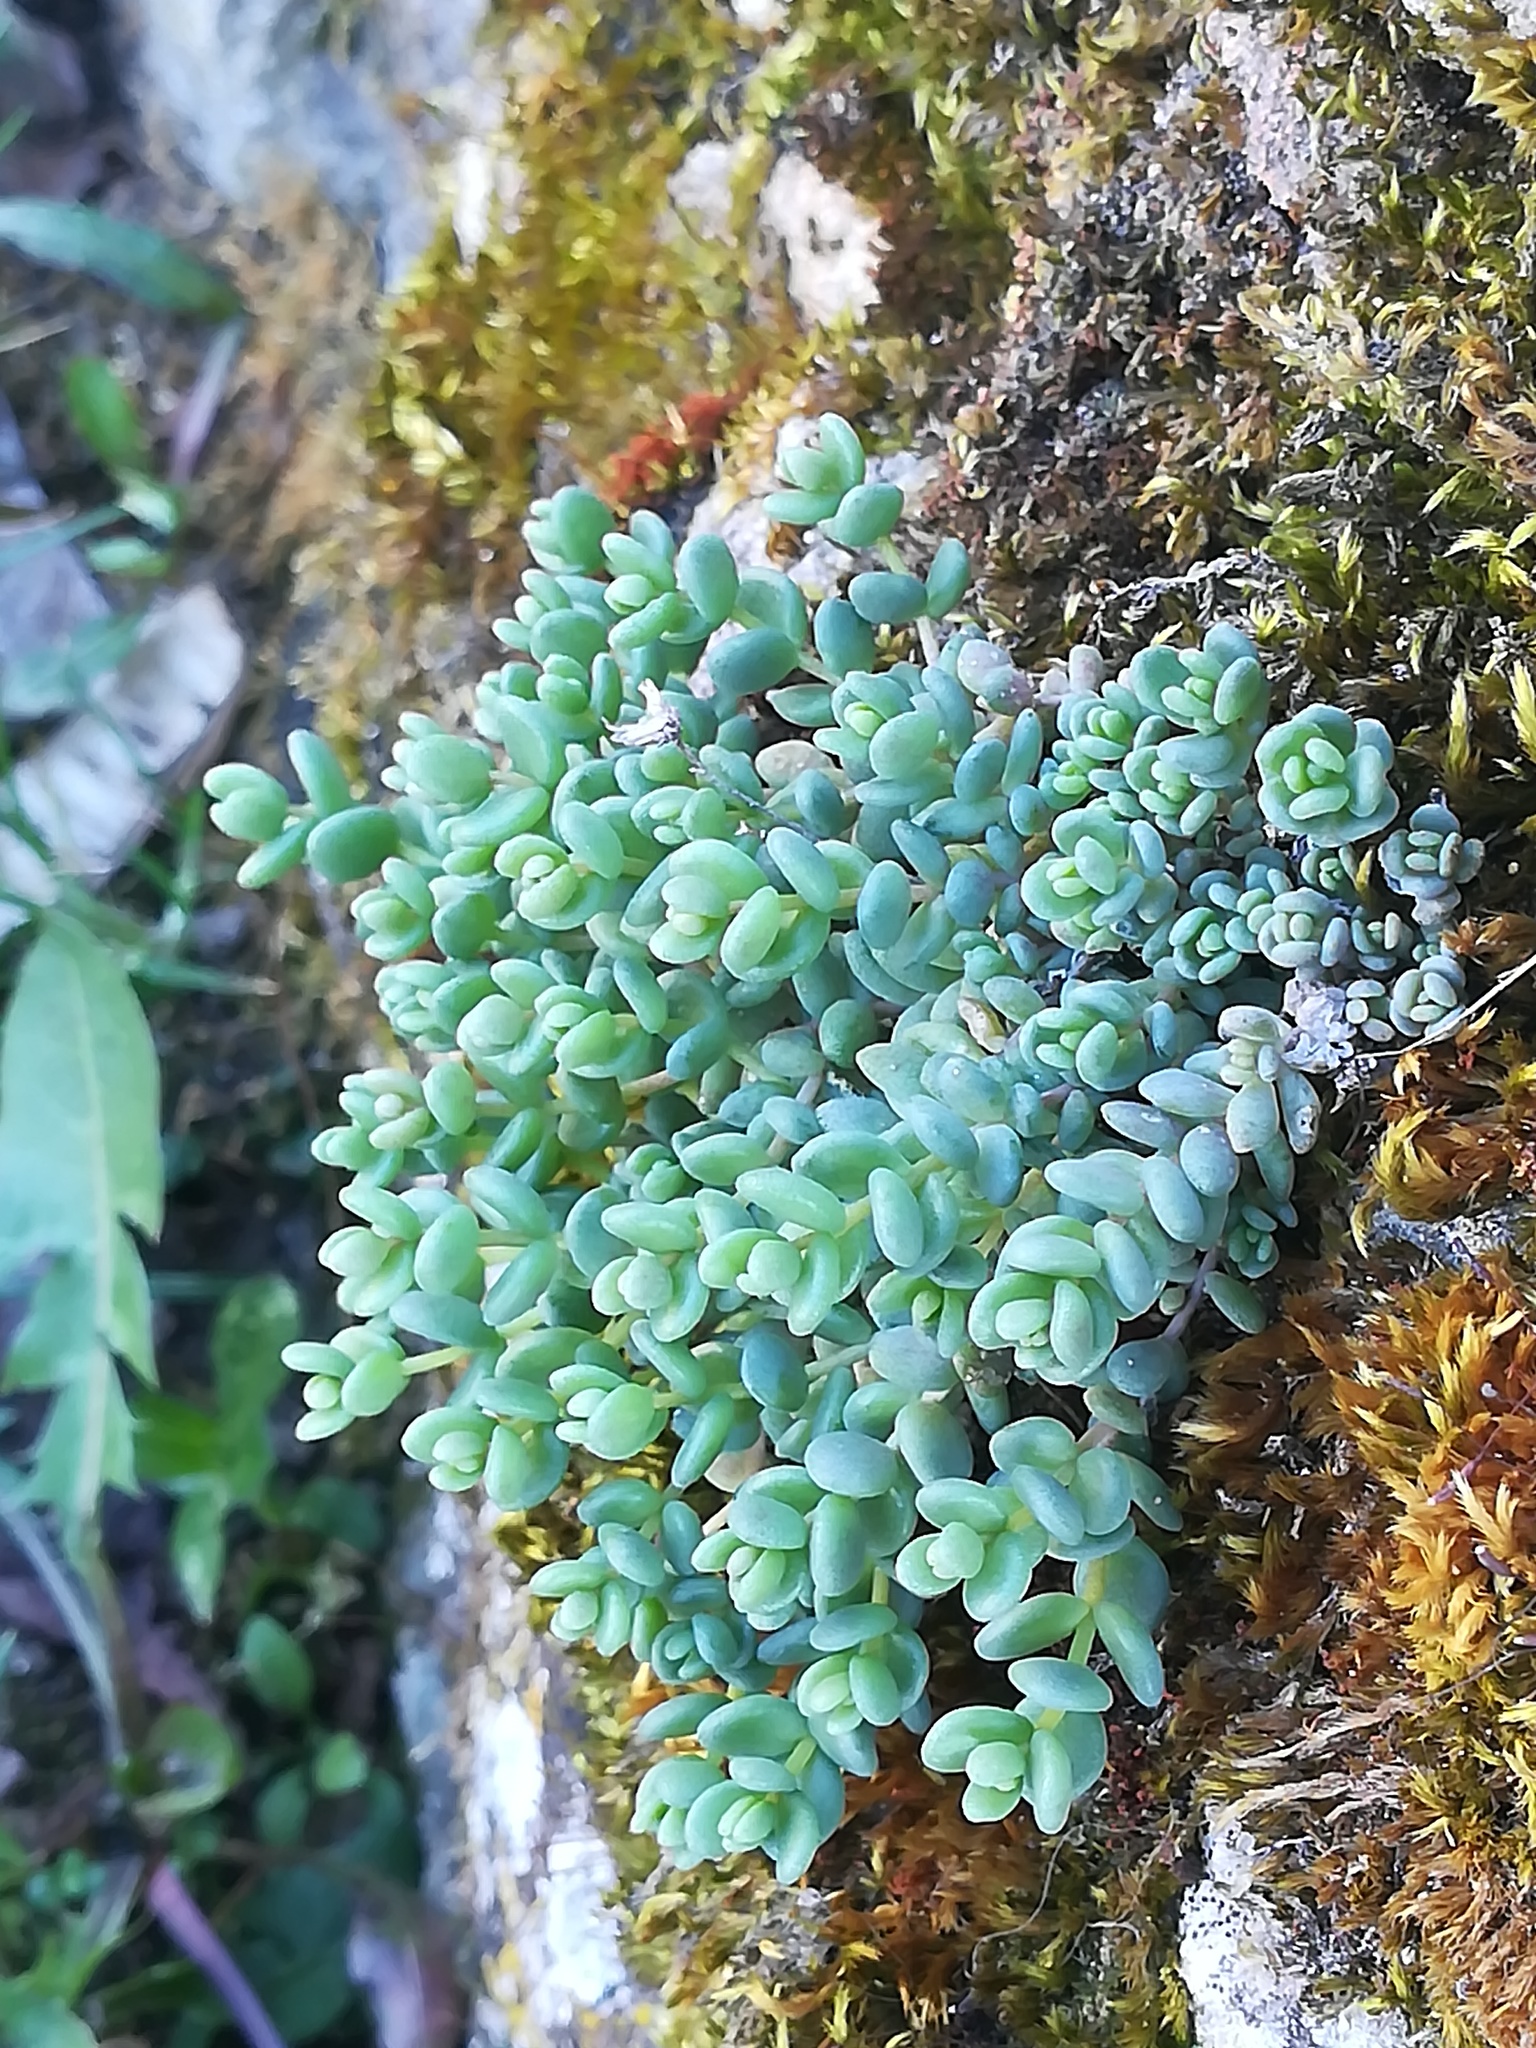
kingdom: Plantae
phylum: Tracheophyta
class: Magnoliopsida
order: Saxifragales
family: Crassulaceae
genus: Sedum
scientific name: Sedum dasyphyllum
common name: Thick-leaf stonecrop
